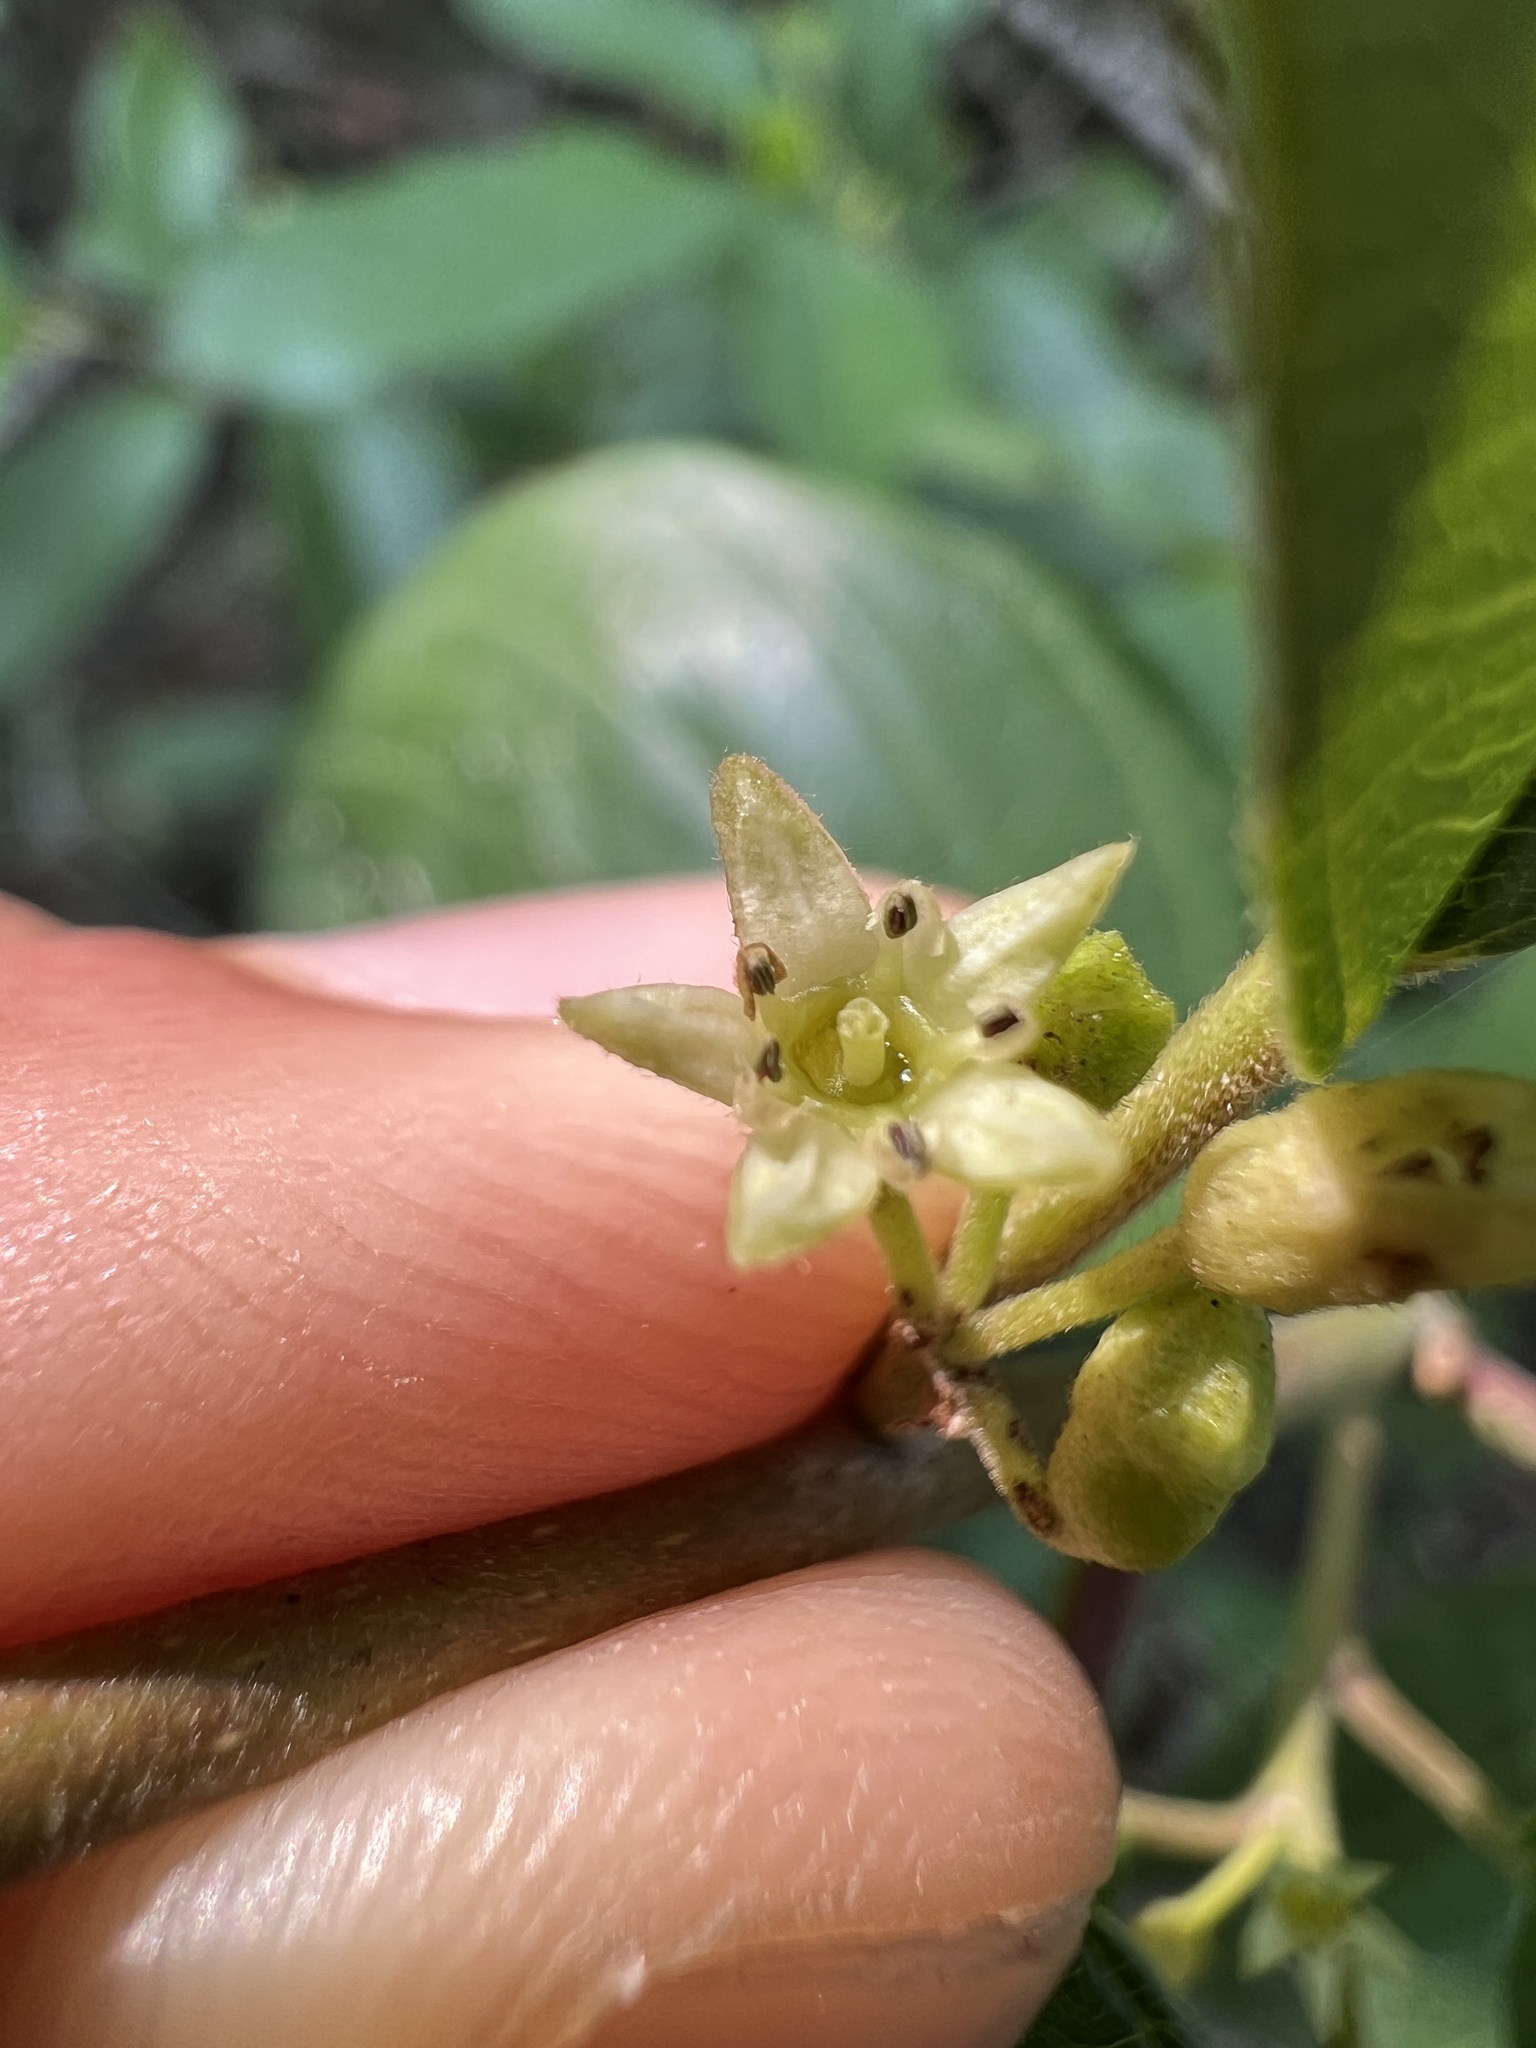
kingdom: Plantae
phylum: Tracheophyta
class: Magnoliopsida
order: Rosales
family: Rhamnaceae
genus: Frangula
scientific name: Frangula caroliniana
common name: Carolina buckthorn
